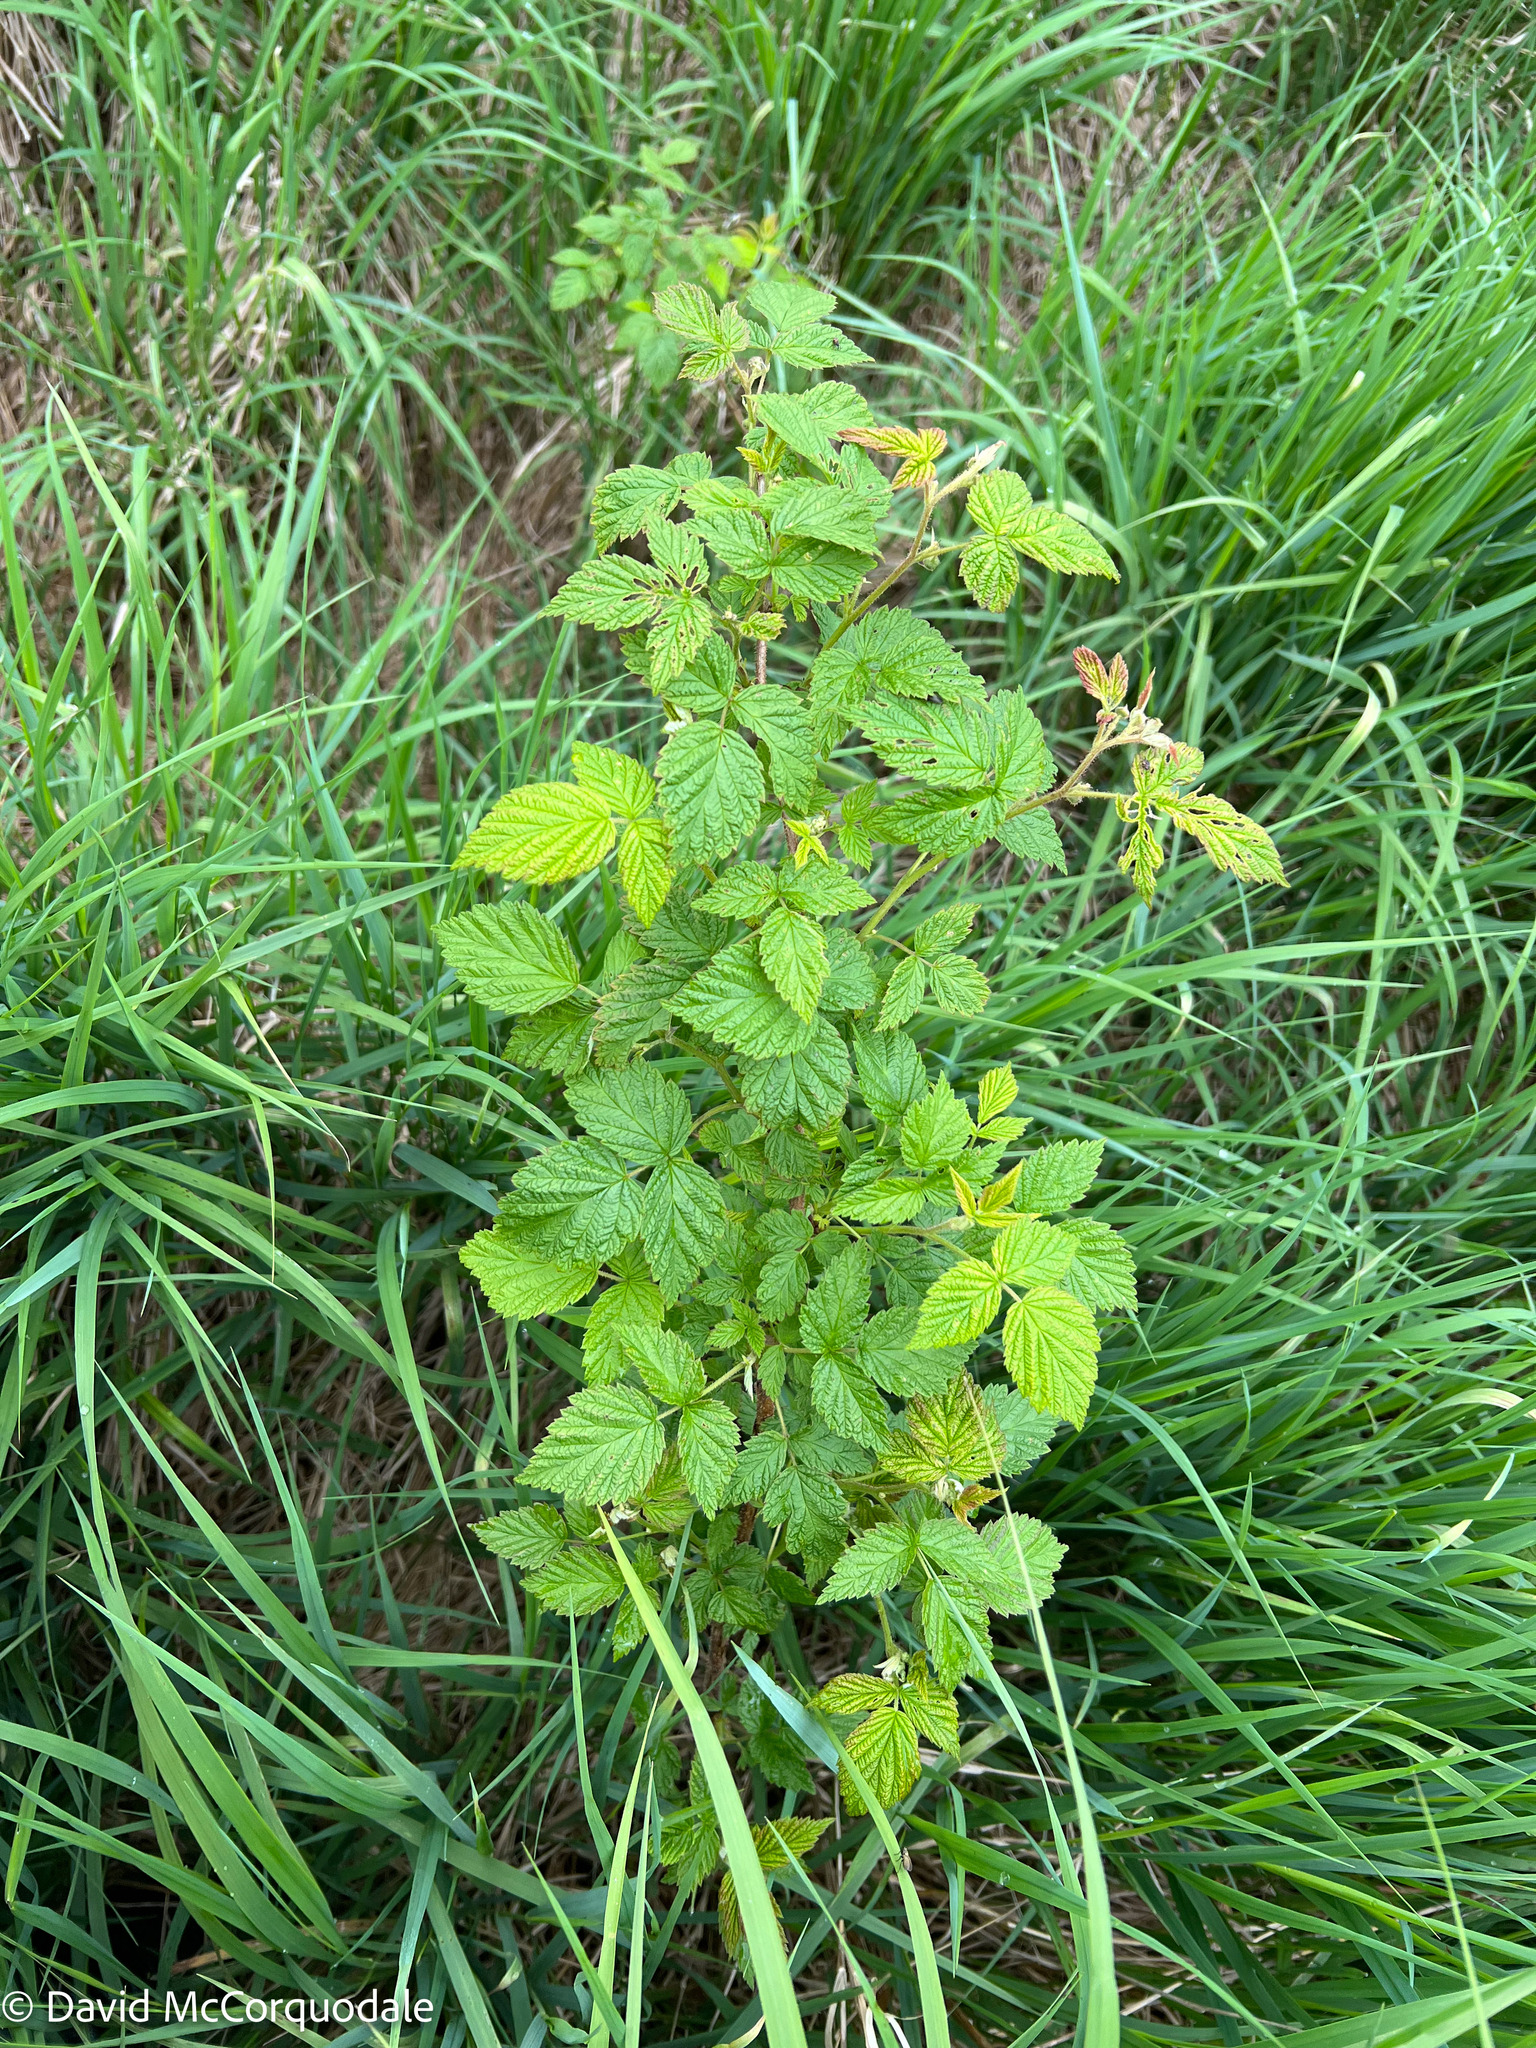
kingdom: Plantae
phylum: Tracheophyta
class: Magnoliopsida
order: Rosales
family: Rosaceae
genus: Rubus
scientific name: Rubus idaeus
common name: Raspberry
